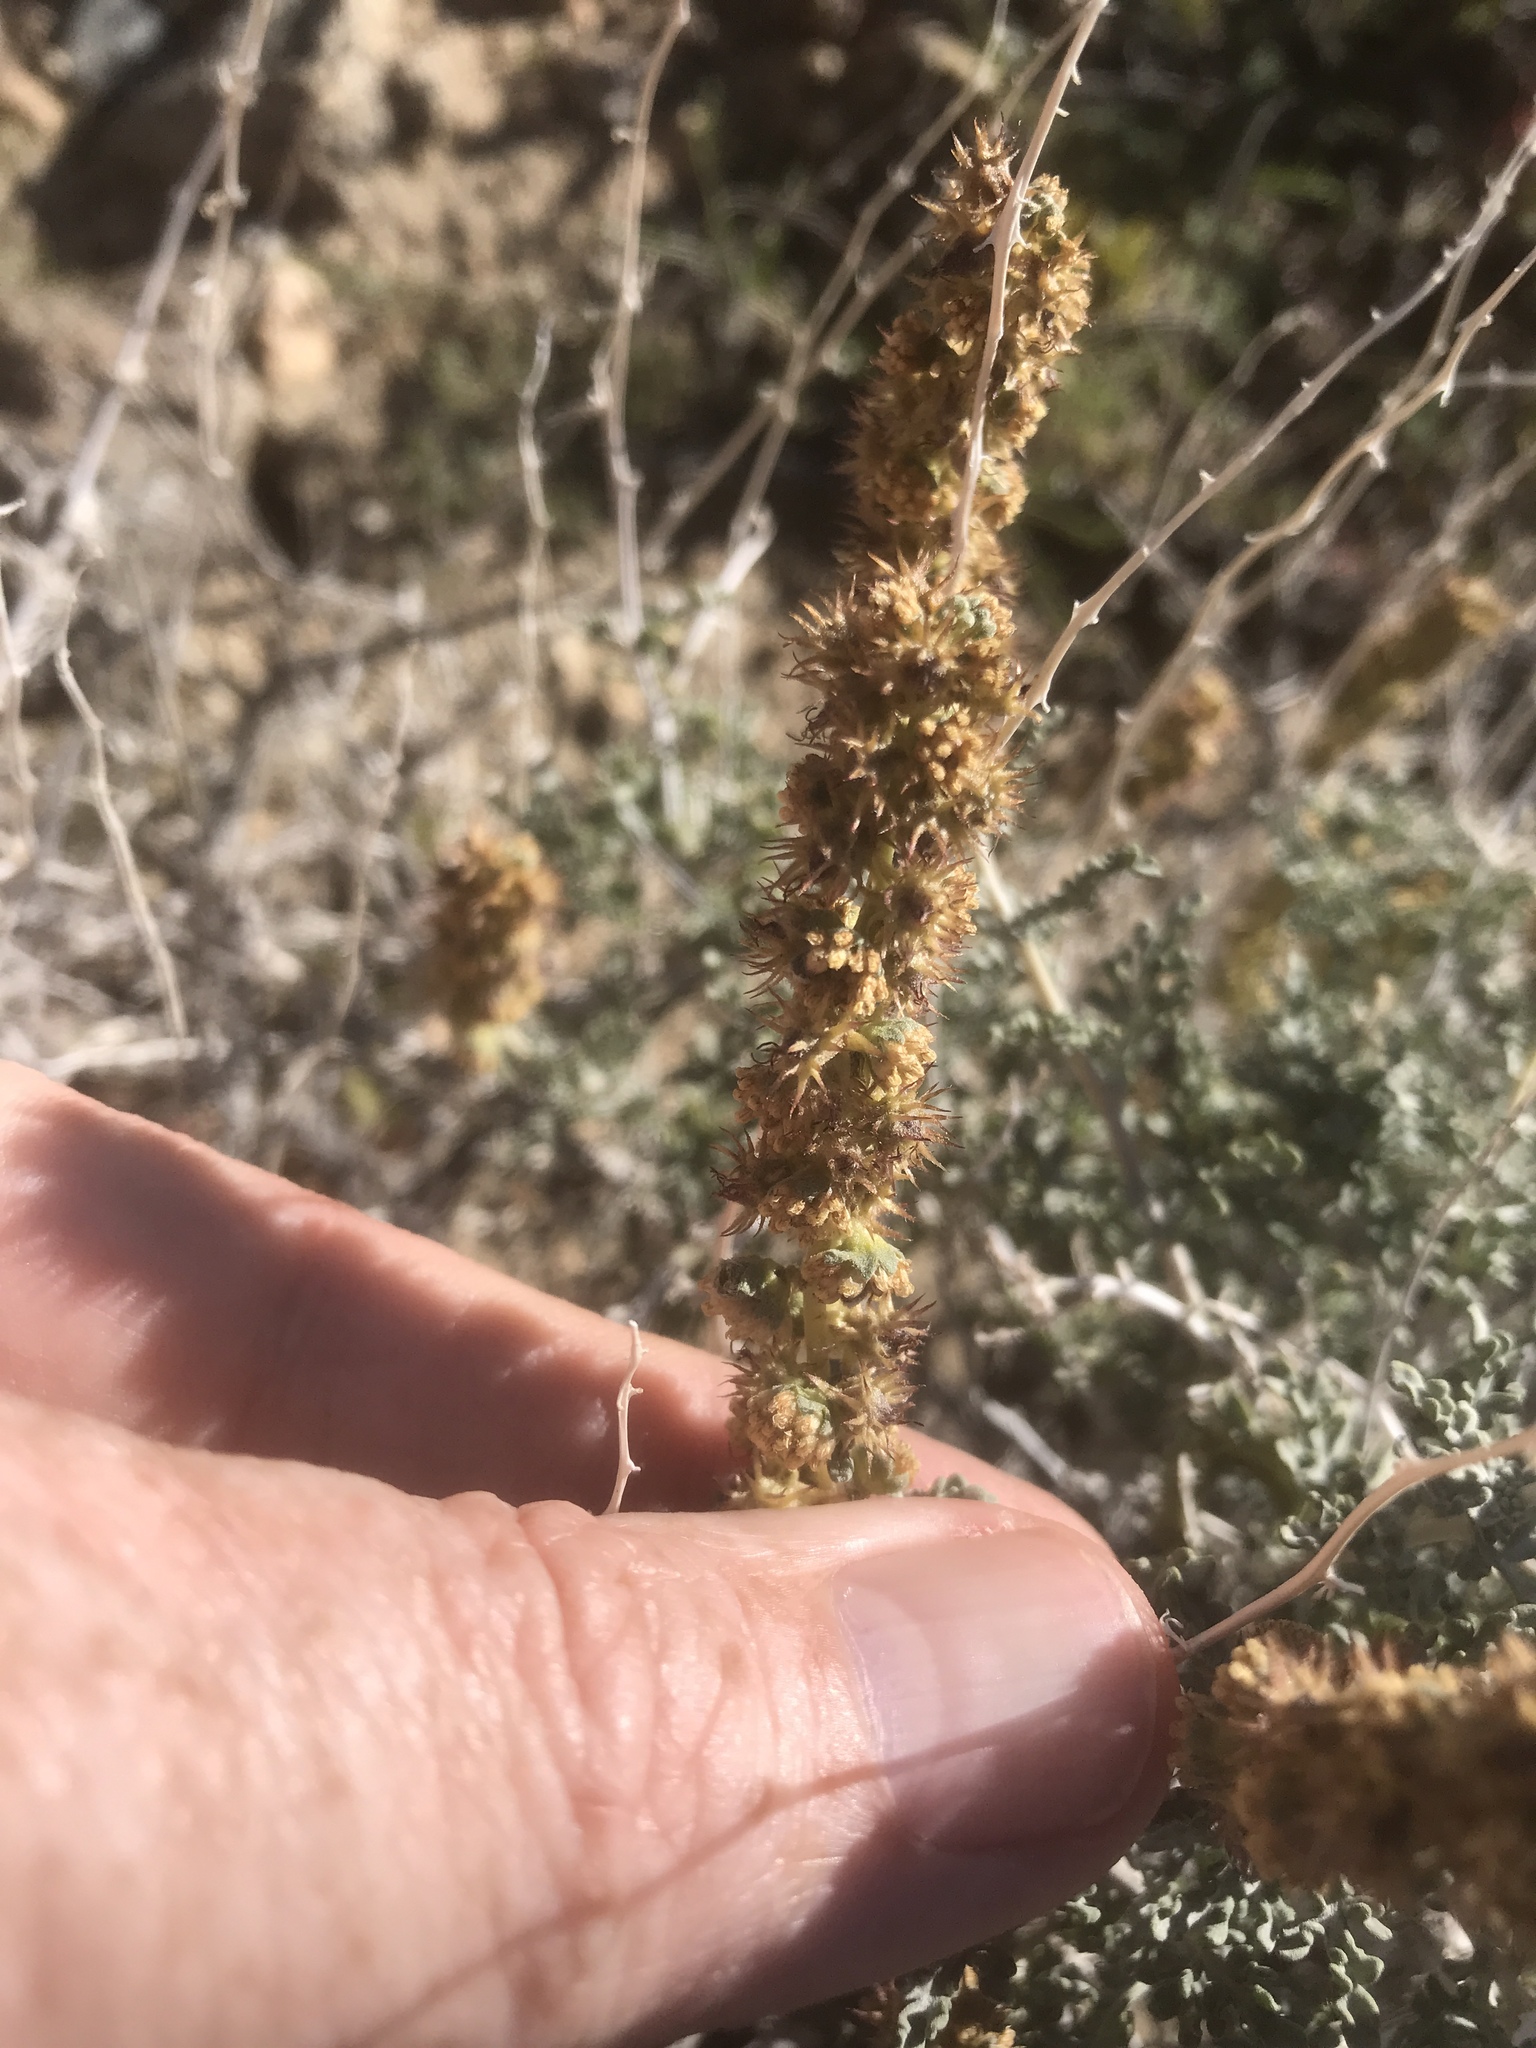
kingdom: Plantae
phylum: Tracheophyta
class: Magnoliopsida
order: Asterales
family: Asteraceae
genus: Ambrosia
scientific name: Ambrosia dumosa
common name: Bur-sage
